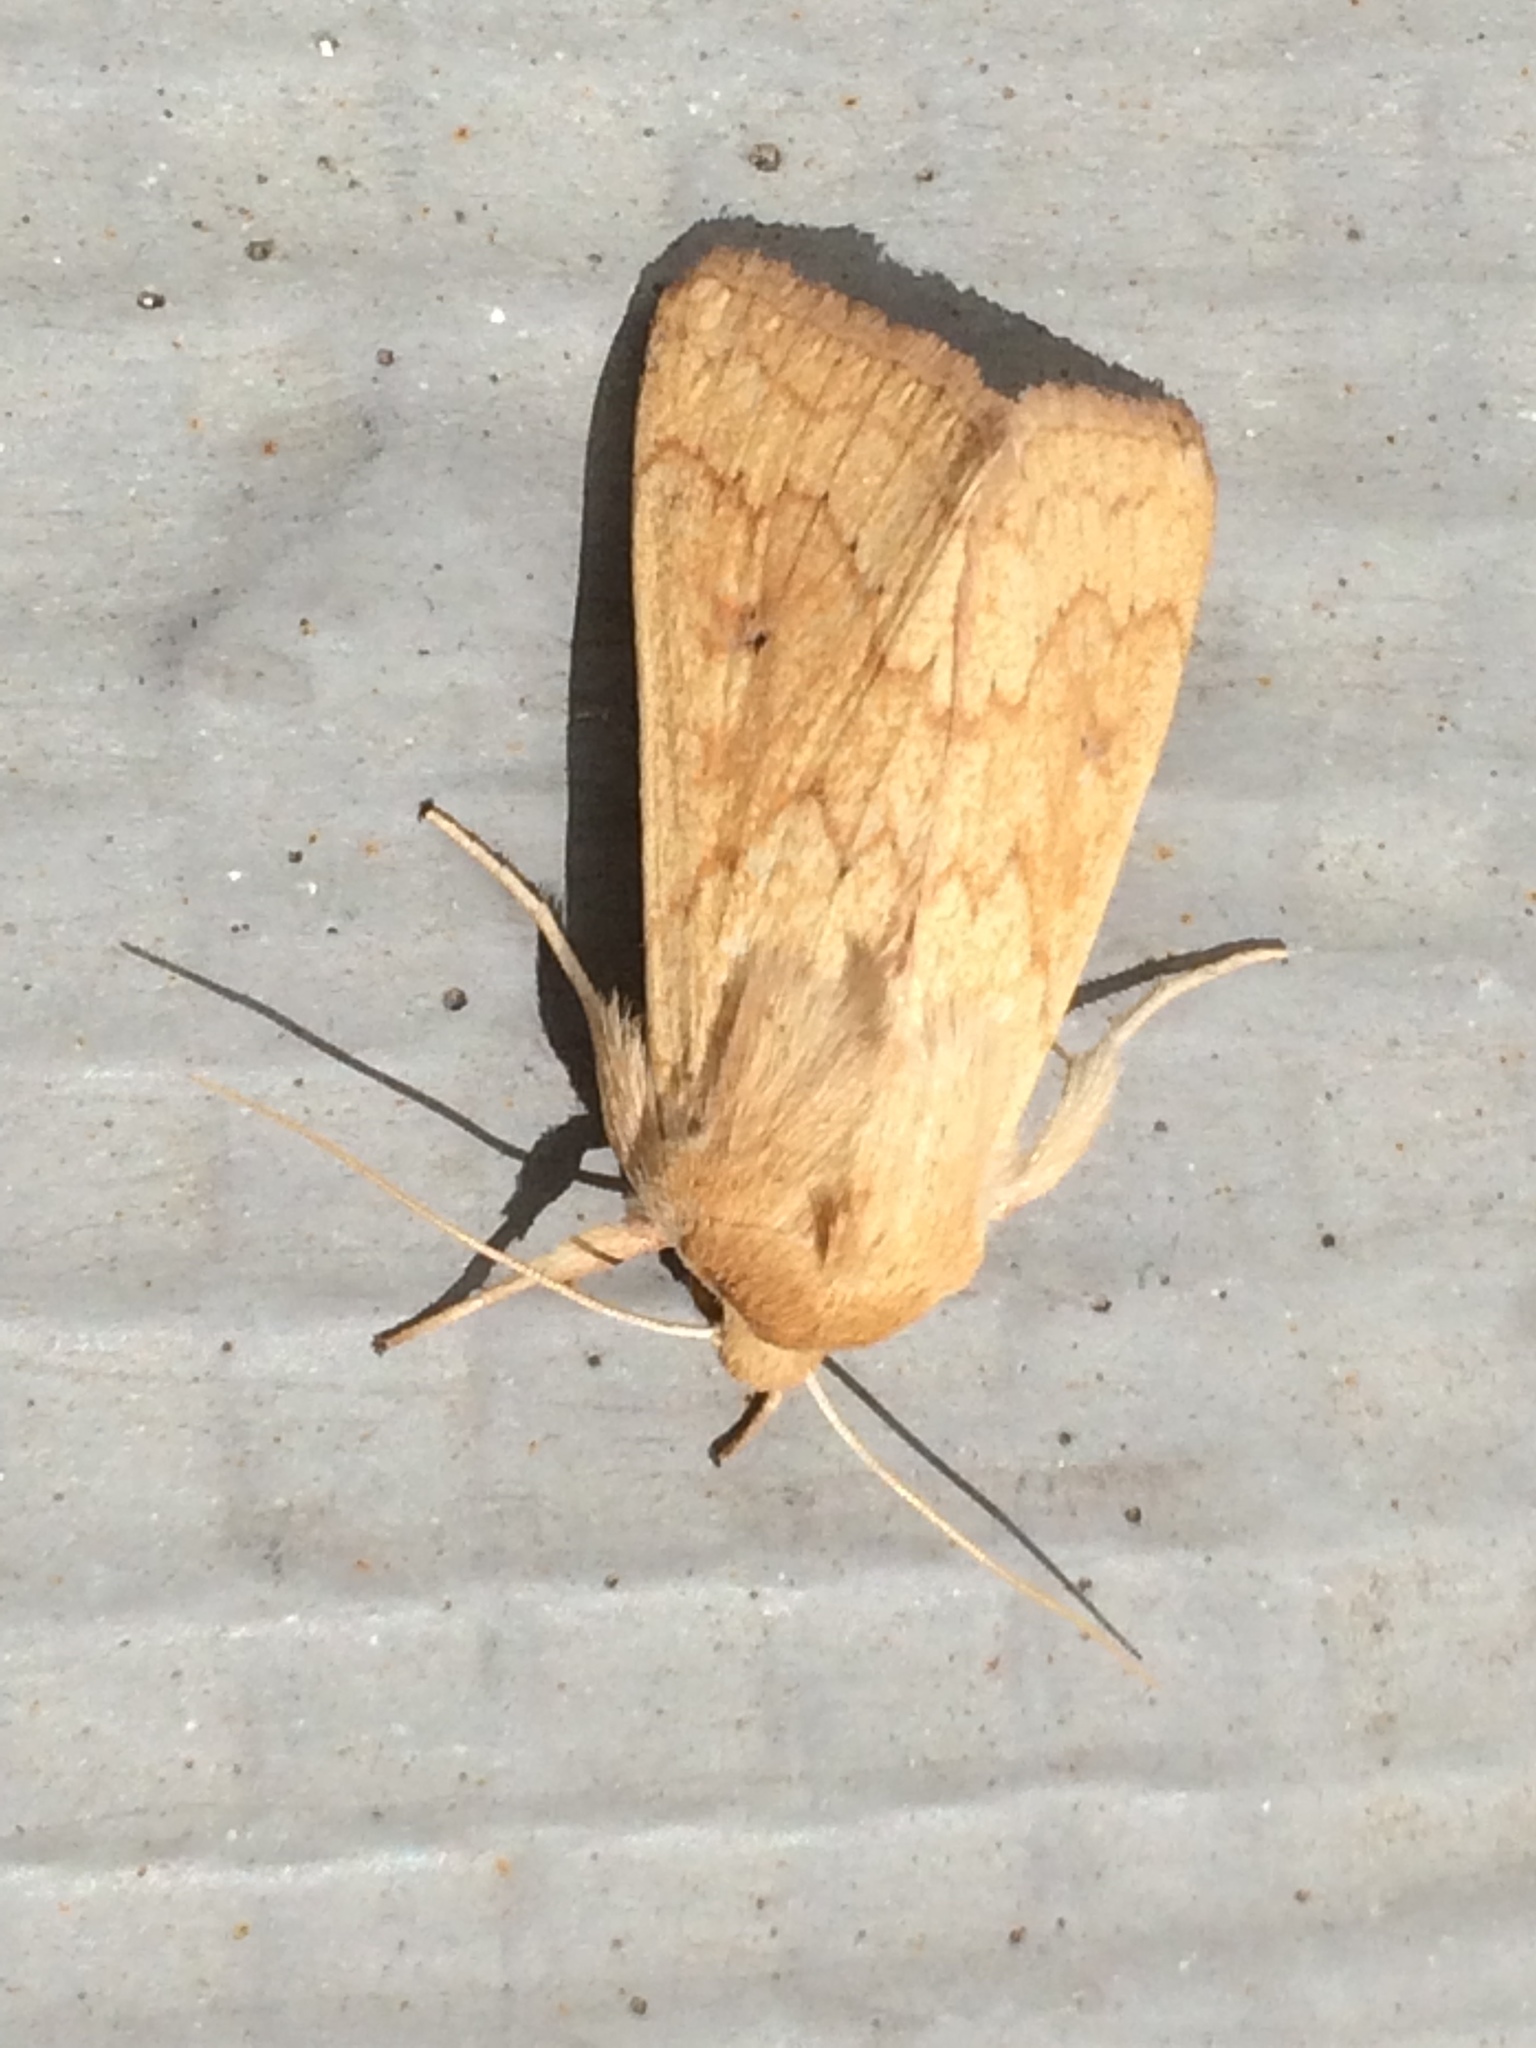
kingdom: Animalia
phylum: Arthropoda
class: Insecta
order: Lepidoptera
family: Noctuidae
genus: Mythimna
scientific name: Mythimna vitellina
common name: Delicate
